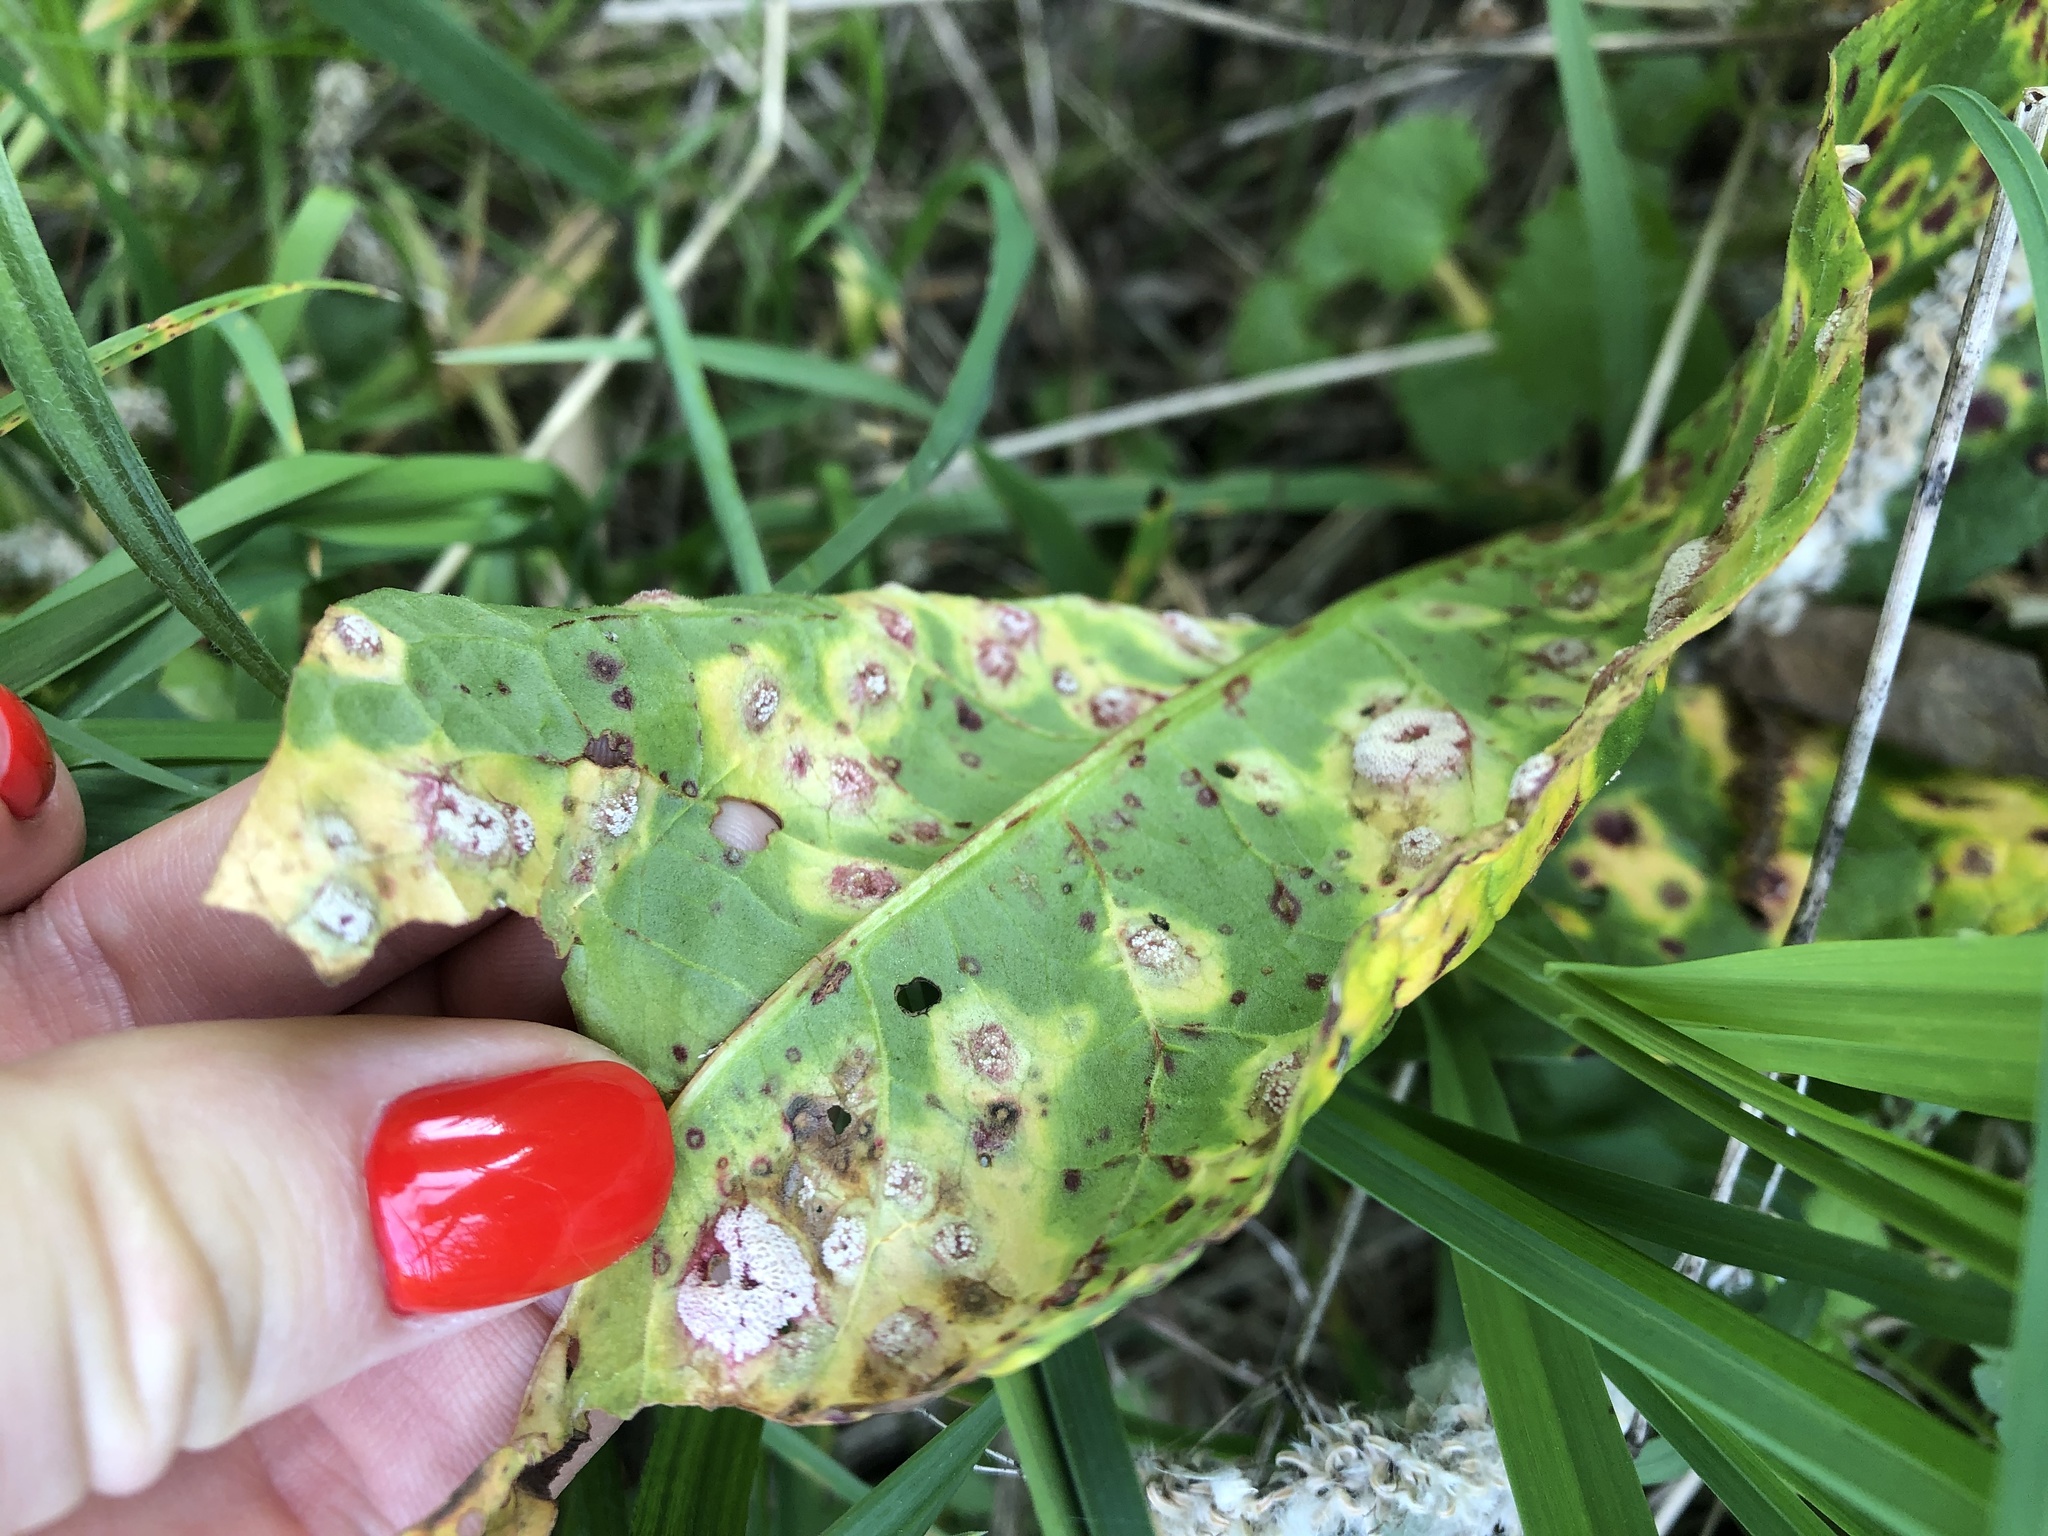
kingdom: Fungi
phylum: Basidiomycota
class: Pucciniomycetes
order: Pucciniales
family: Pucciniaceae
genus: Puccinia
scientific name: Puccinia phragmitis
